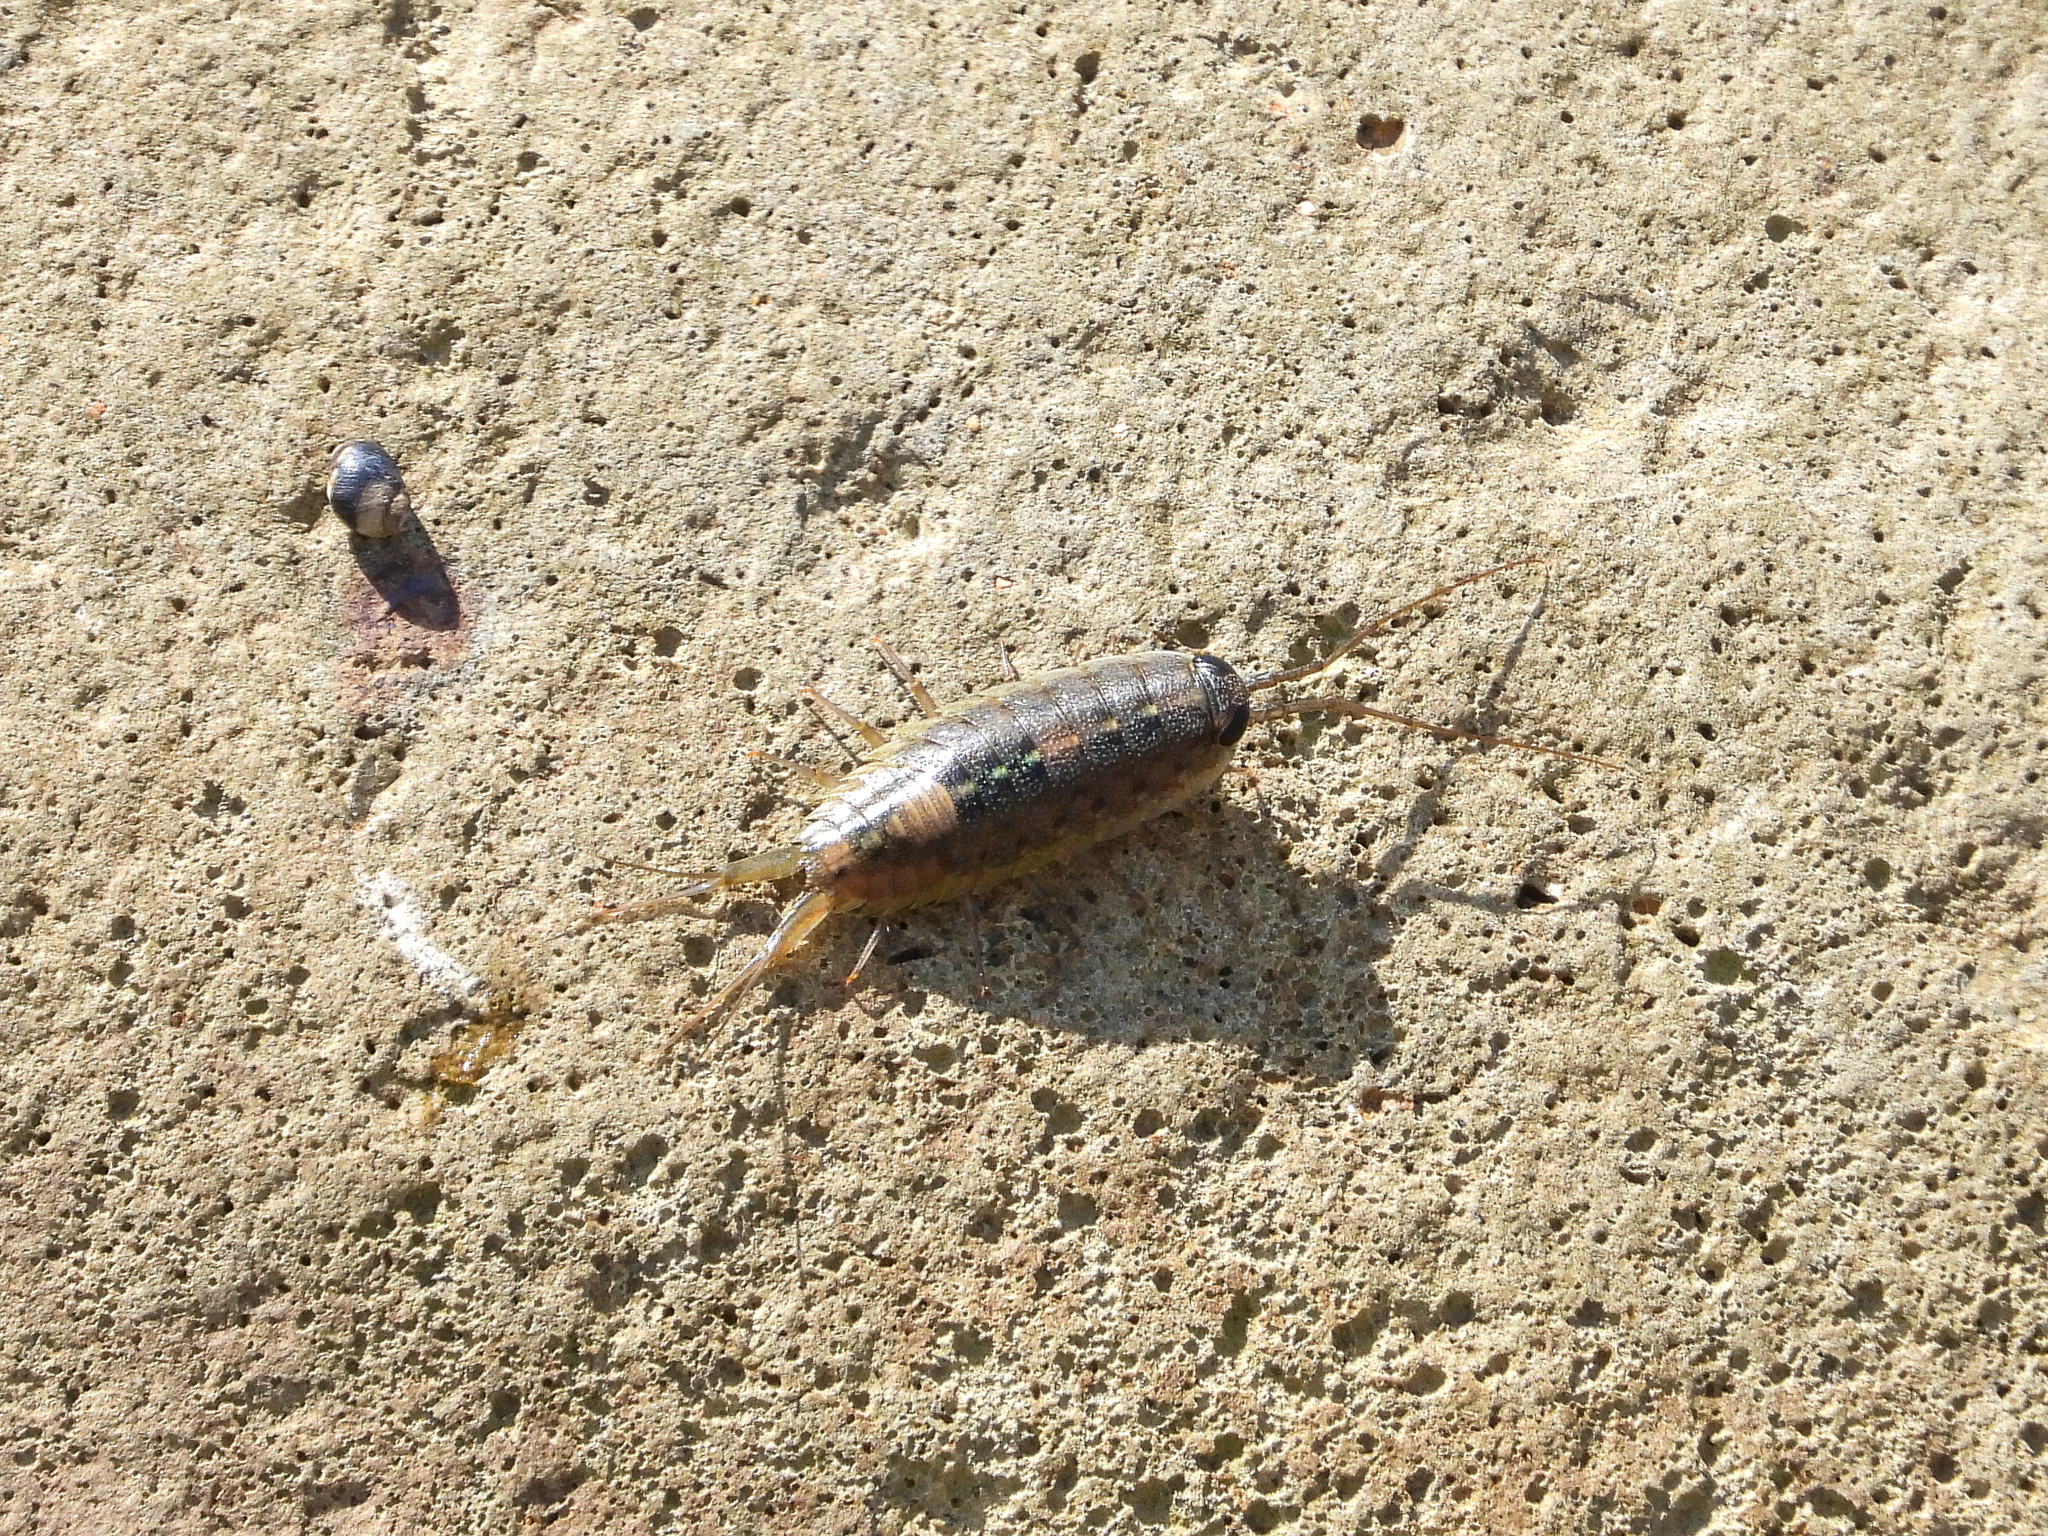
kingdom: Animalia
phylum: Arthropoda
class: Malacostraca
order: Isopoda
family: Ligiidae
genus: Ligia
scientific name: Ligia occidentalis
